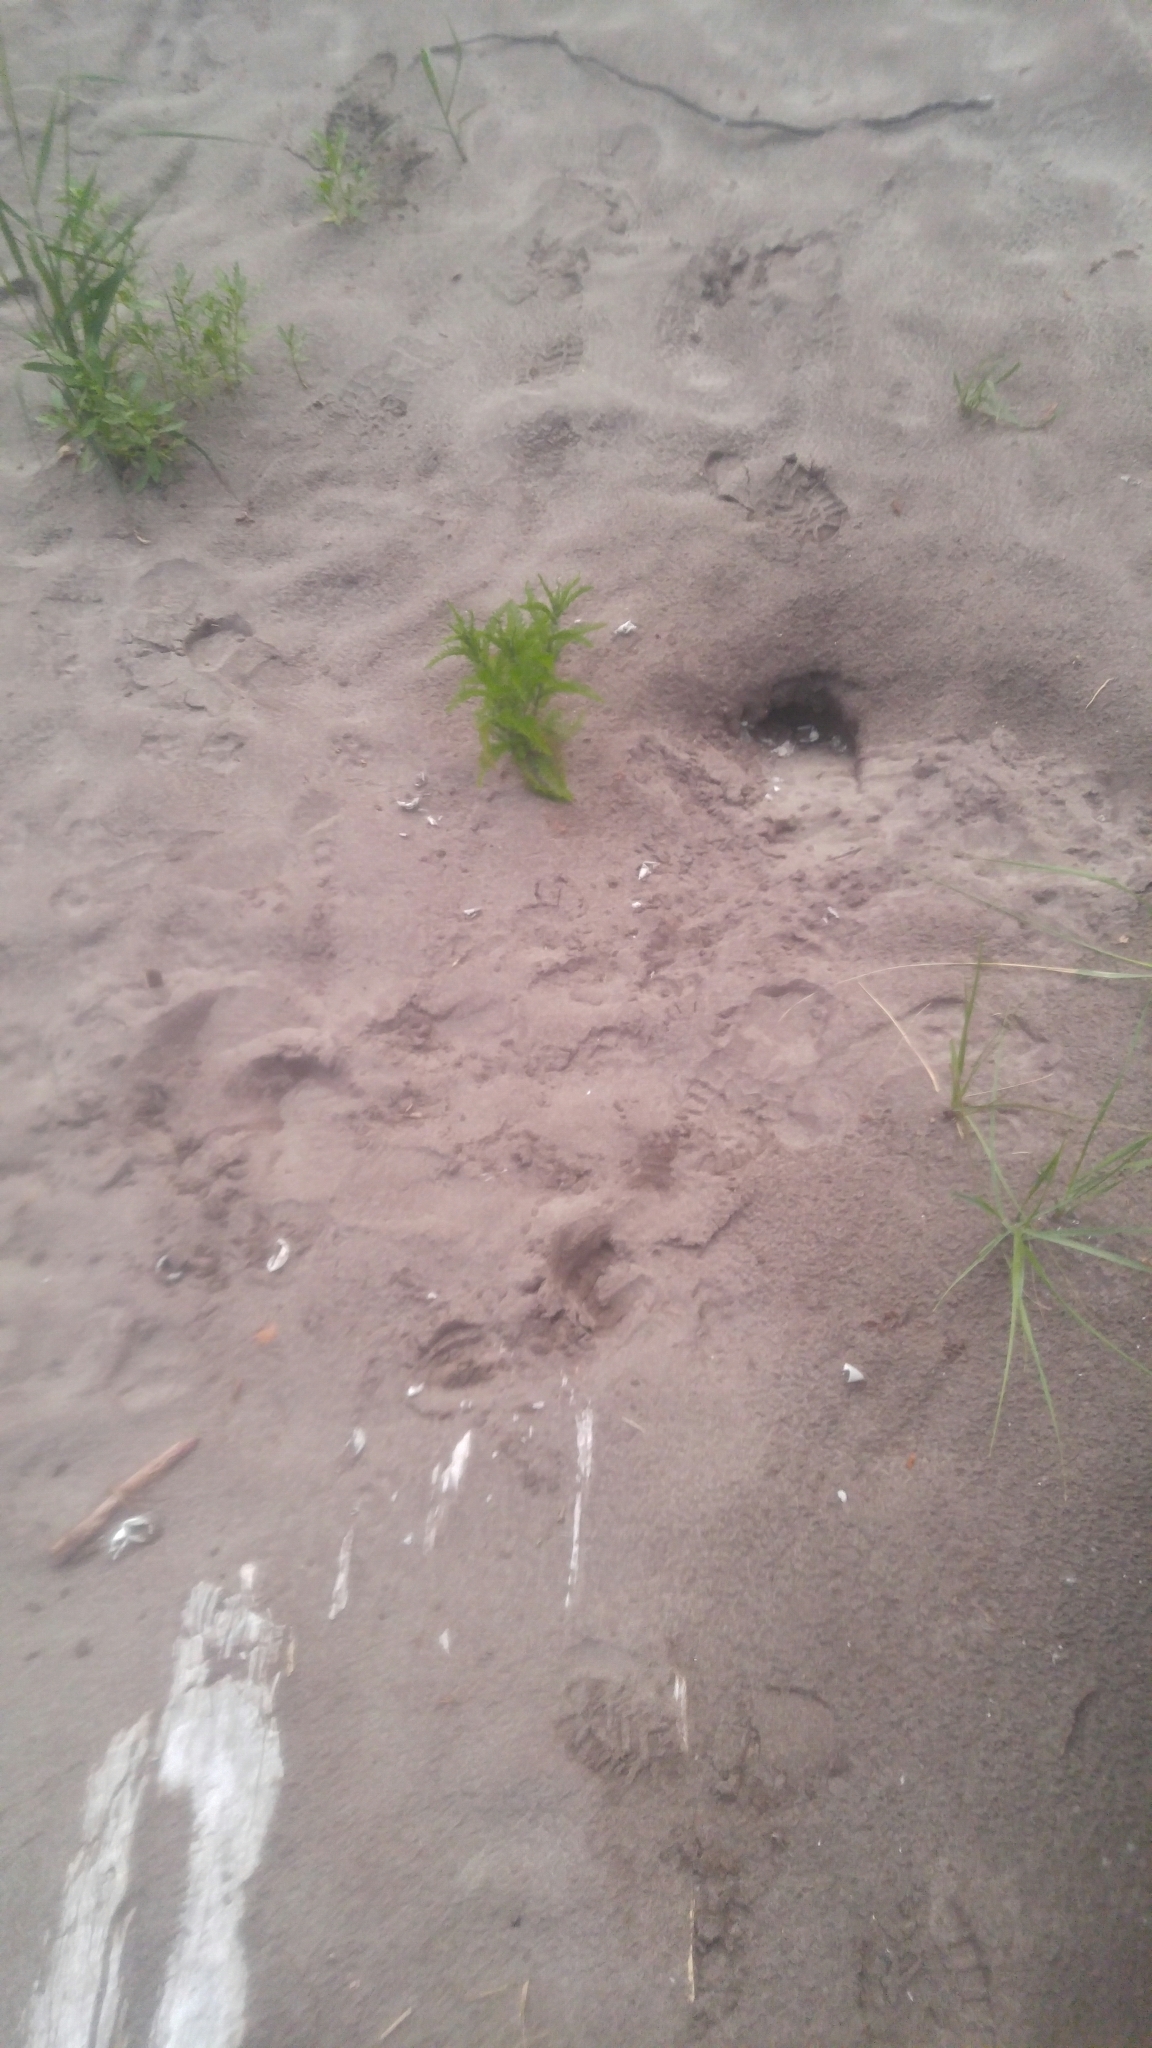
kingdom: Animalia
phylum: Chordata
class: Testudines
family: Chelydridae
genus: Chelydra
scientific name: Chelydra serpentina
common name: Common snapping turtle
